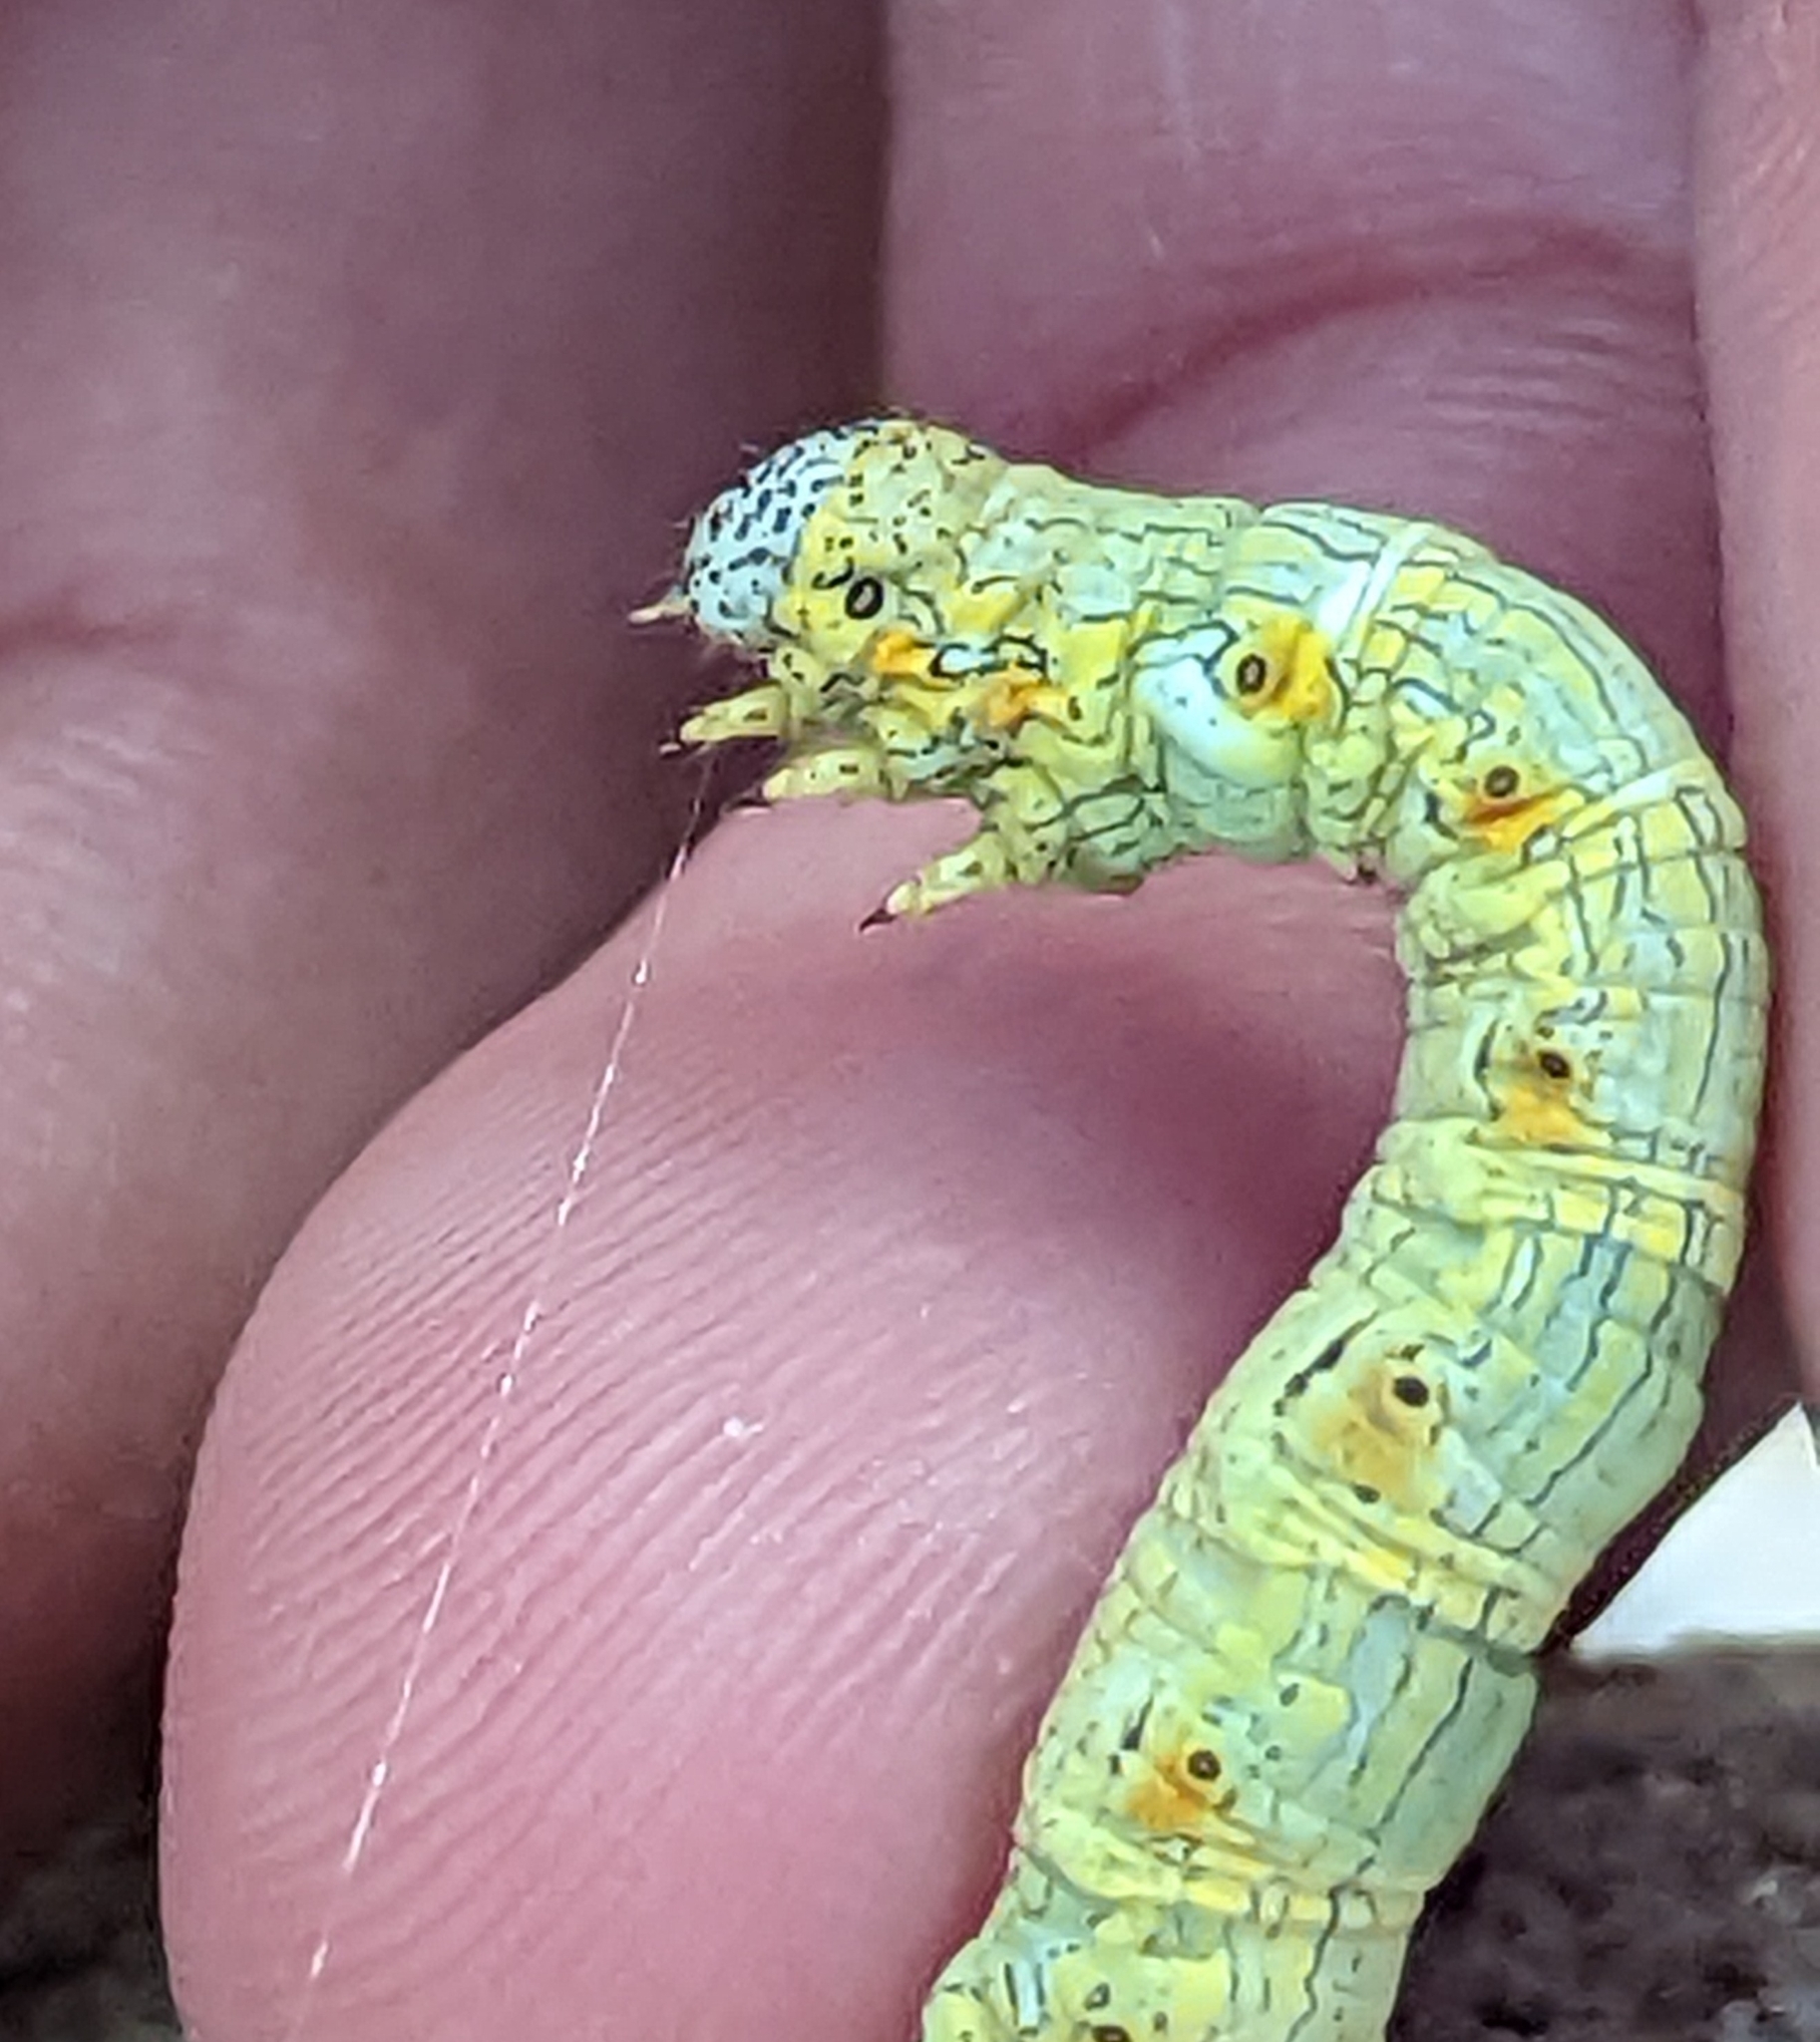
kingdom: Animalia
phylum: Arthropoda
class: Insecta
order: Lepidoptera
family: Geometridae
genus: Lycia
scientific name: Lycia ypsilon
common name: Wooly gray
